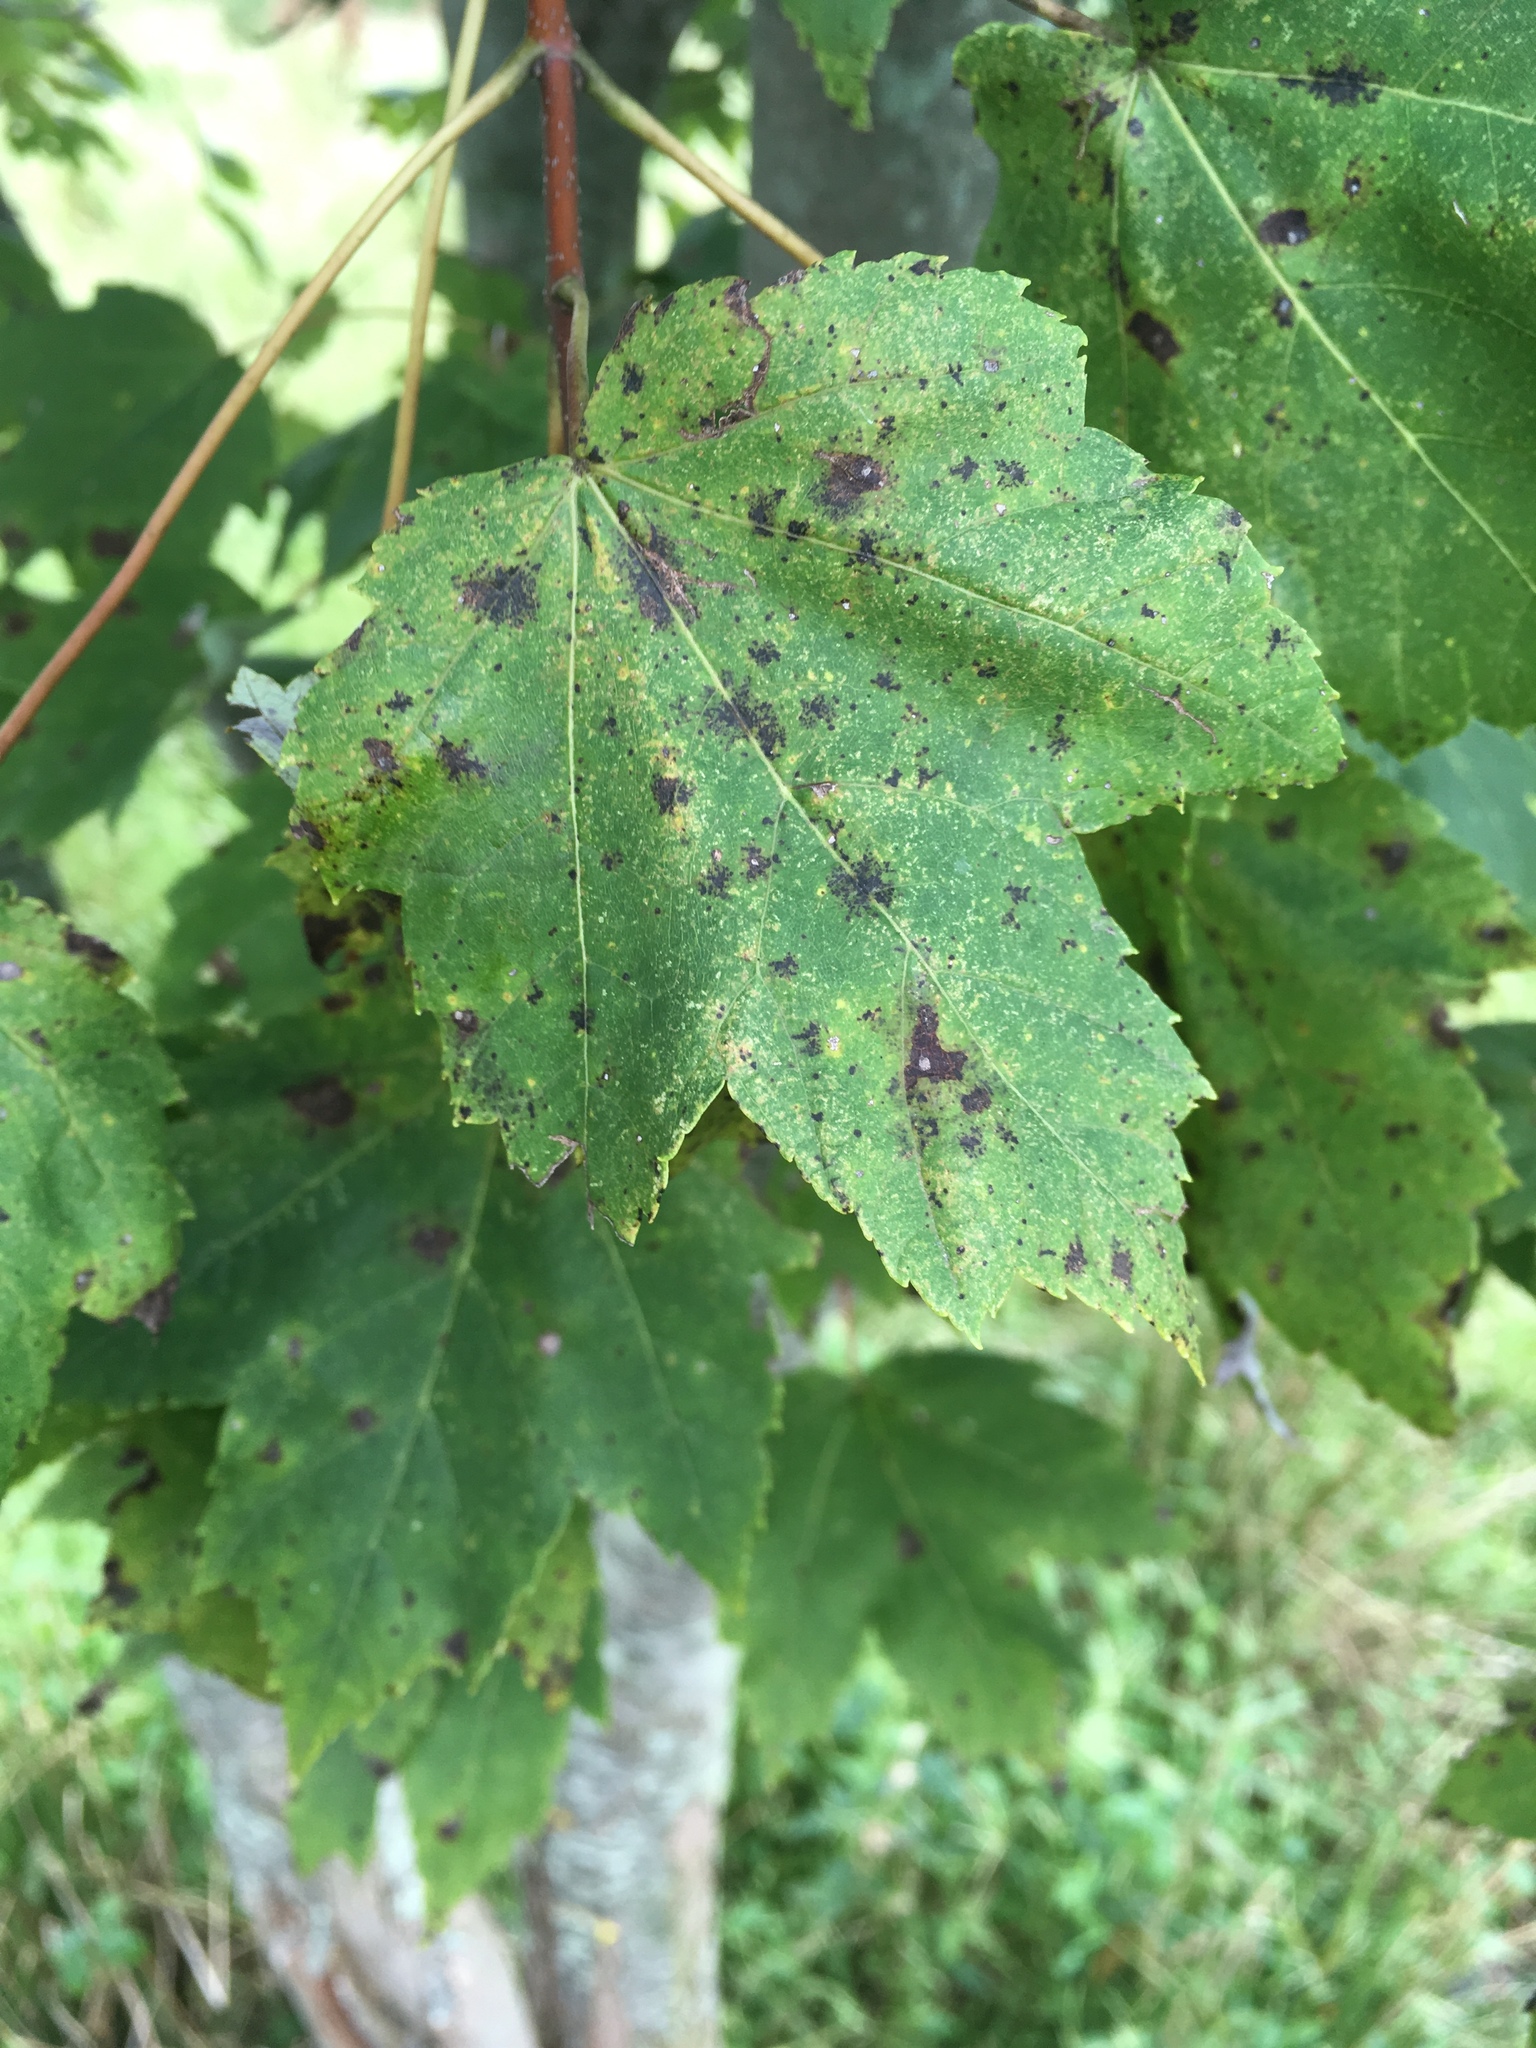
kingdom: Plantae
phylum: Tracheophyta
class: Magnoliopsida
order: Sapindales
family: Sapindaceae
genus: Acer
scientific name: Acer rubrum
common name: Red maple
